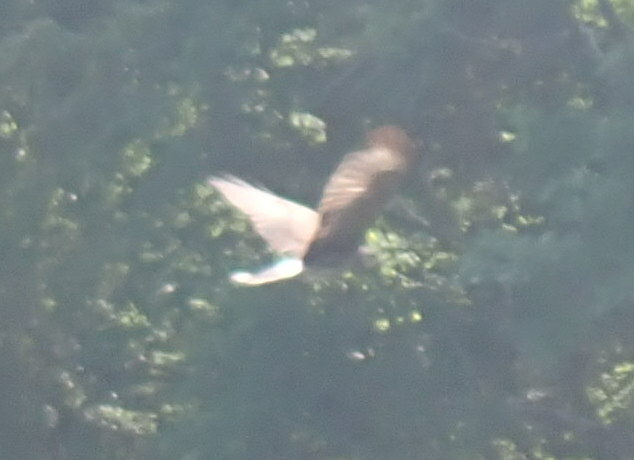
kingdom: Animalia
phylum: Chordata
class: Aves
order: Accipitriformes
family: Accipitridae
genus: Rostrhamus
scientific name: Rostrhamus sociabilis
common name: Snail kite
